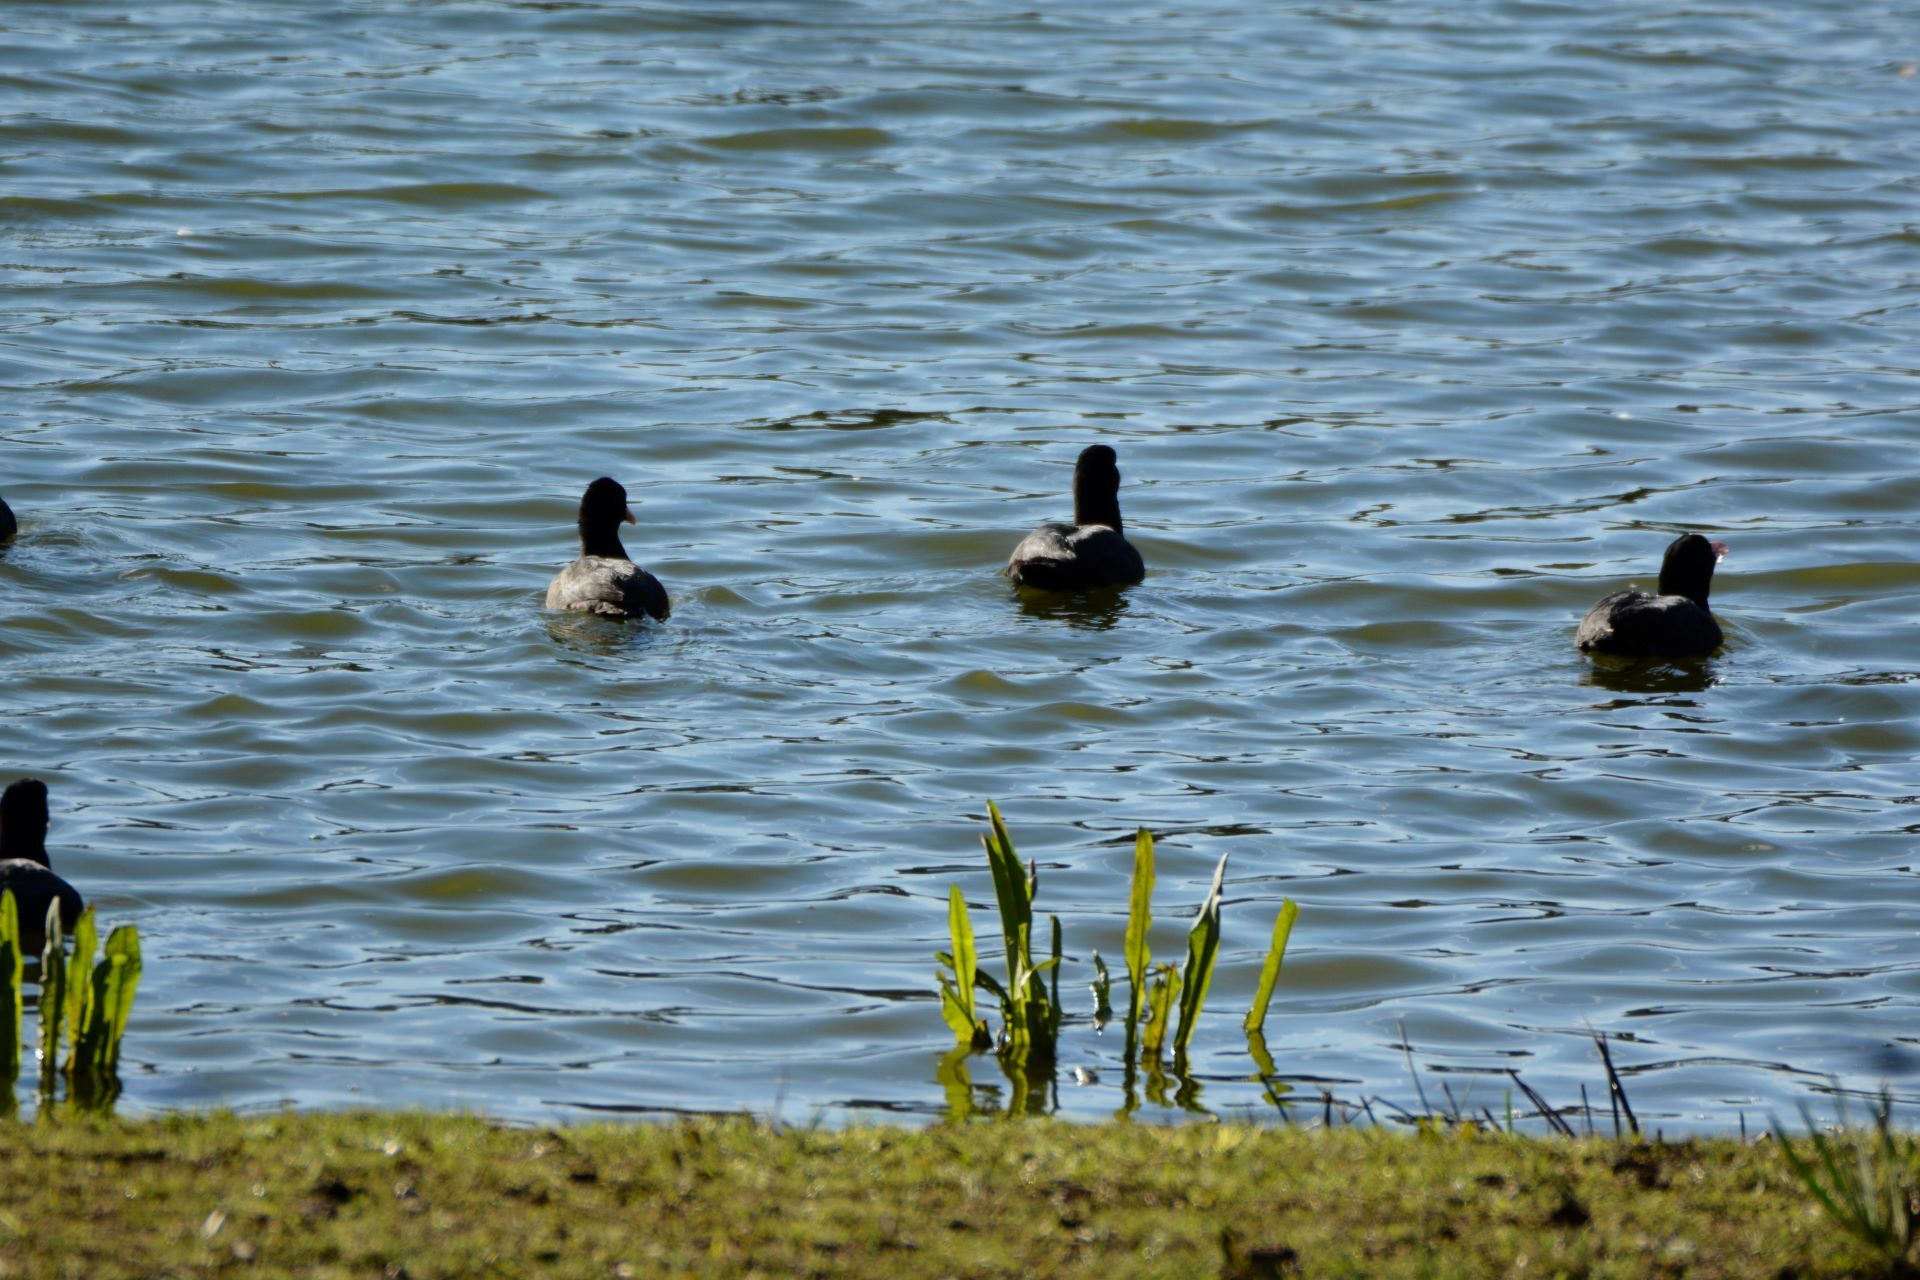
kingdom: Animalia
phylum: Chordata
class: Aves
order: Gruiformes
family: Rallidae
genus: Fulica
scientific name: Fulica atra
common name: Eurasian coot
